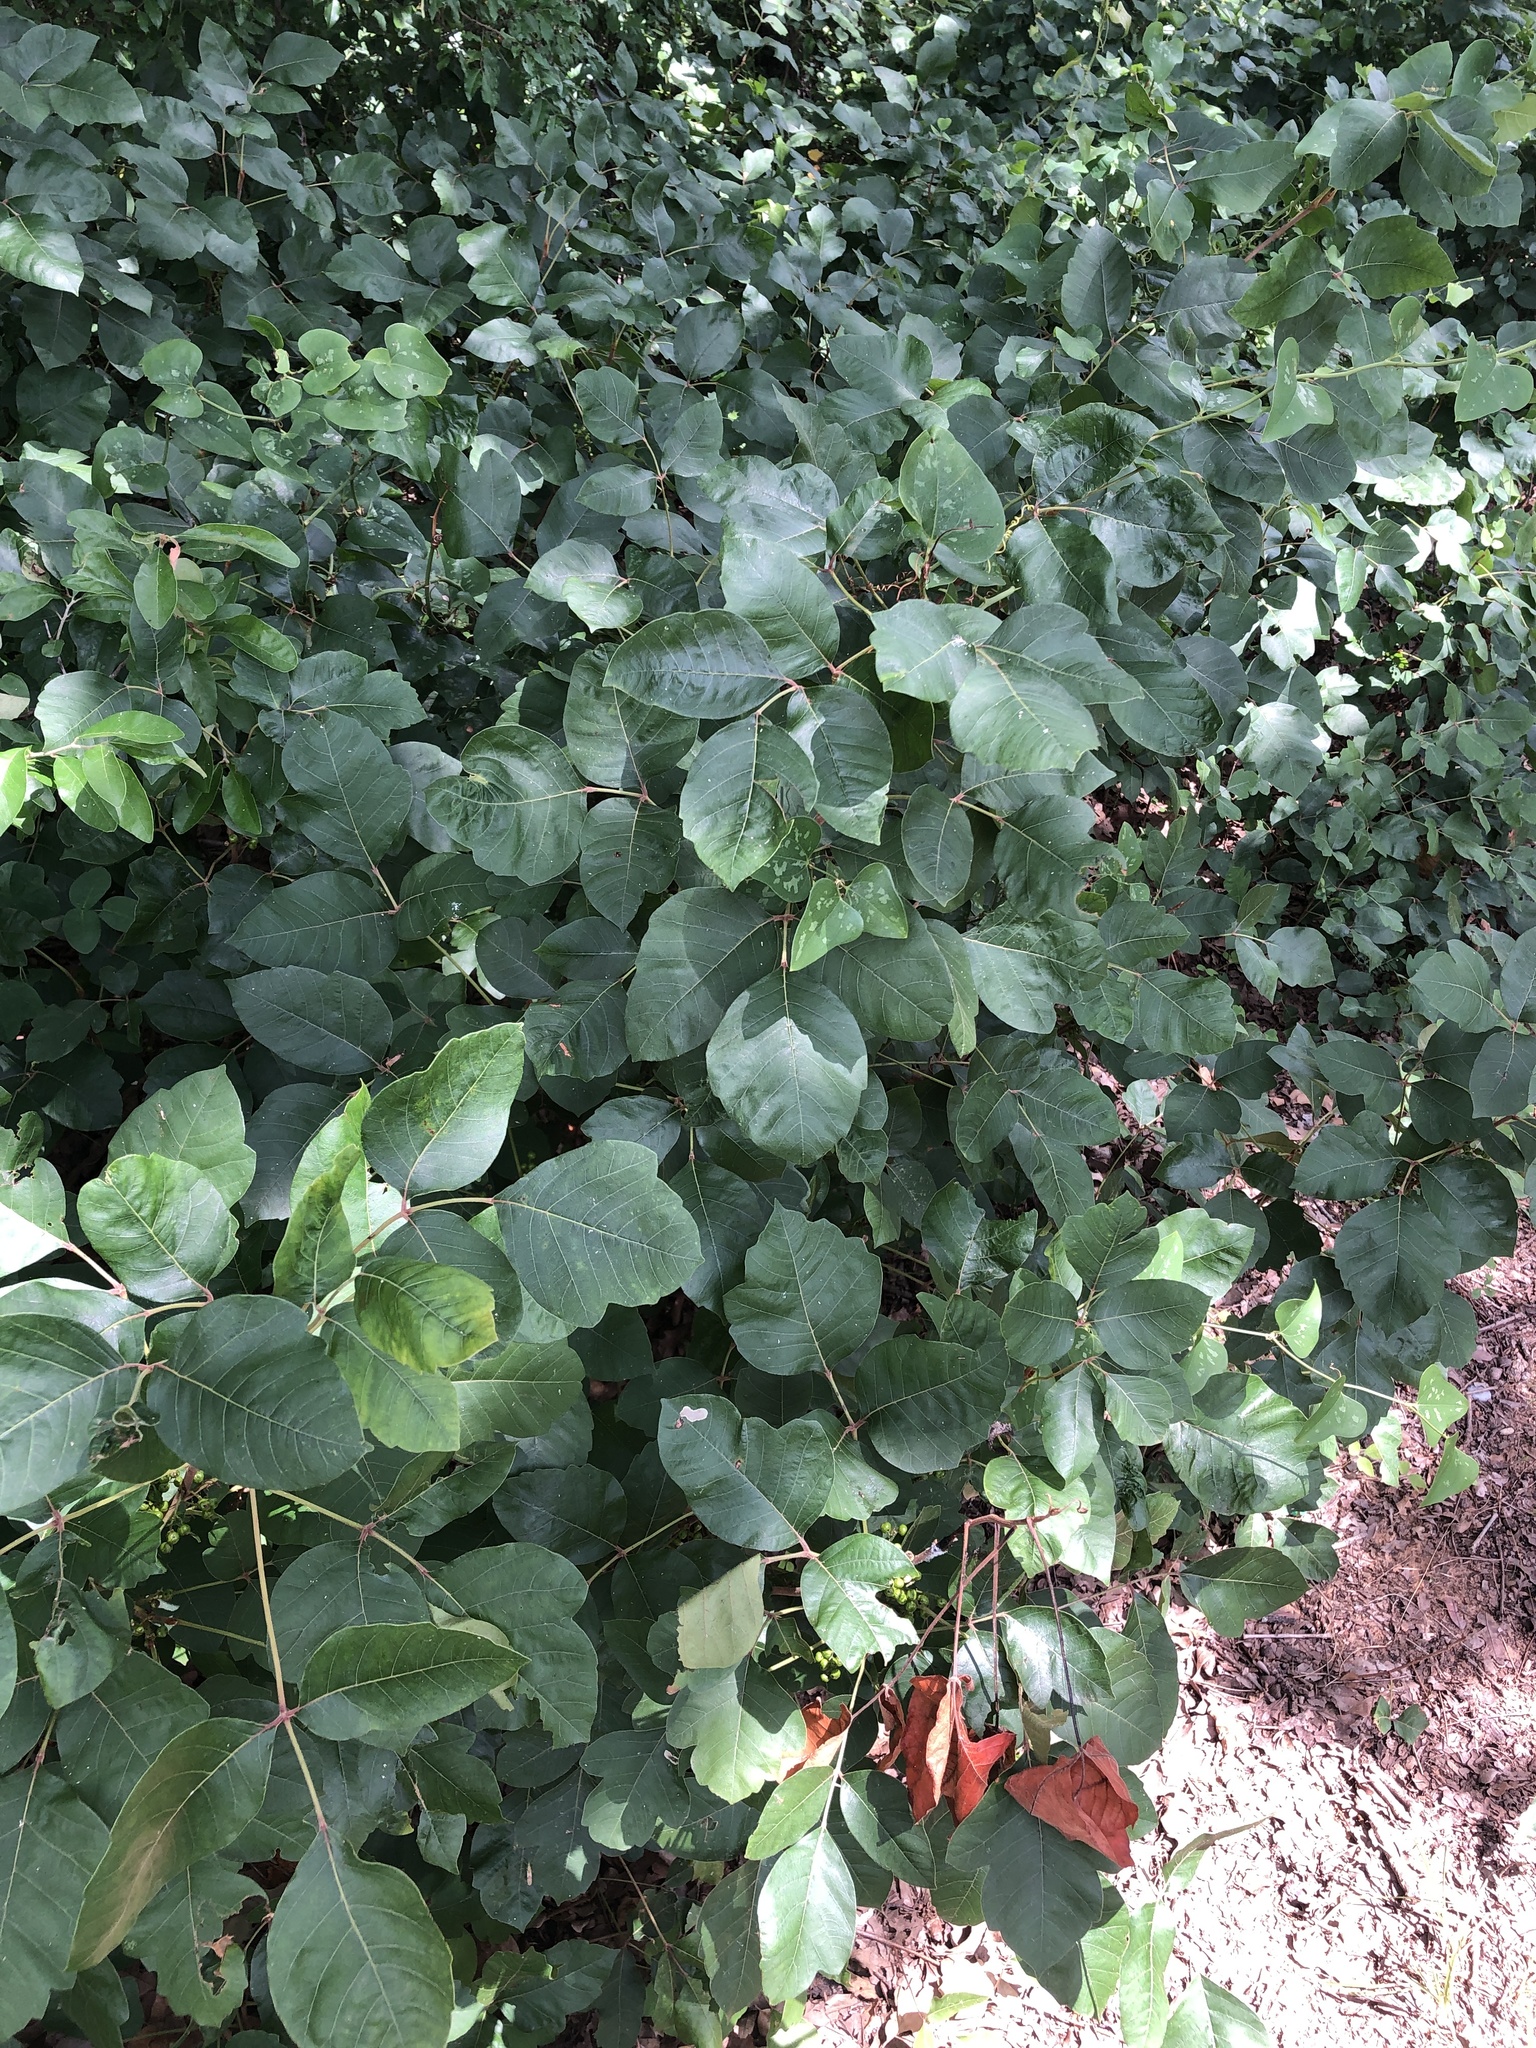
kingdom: Plantae
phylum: Tracheophyta
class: Magnoliopsida
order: Sapindales
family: Anacardiaceae
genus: Toxicodendron
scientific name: Toxicodendron radicans
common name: Poison ivy
